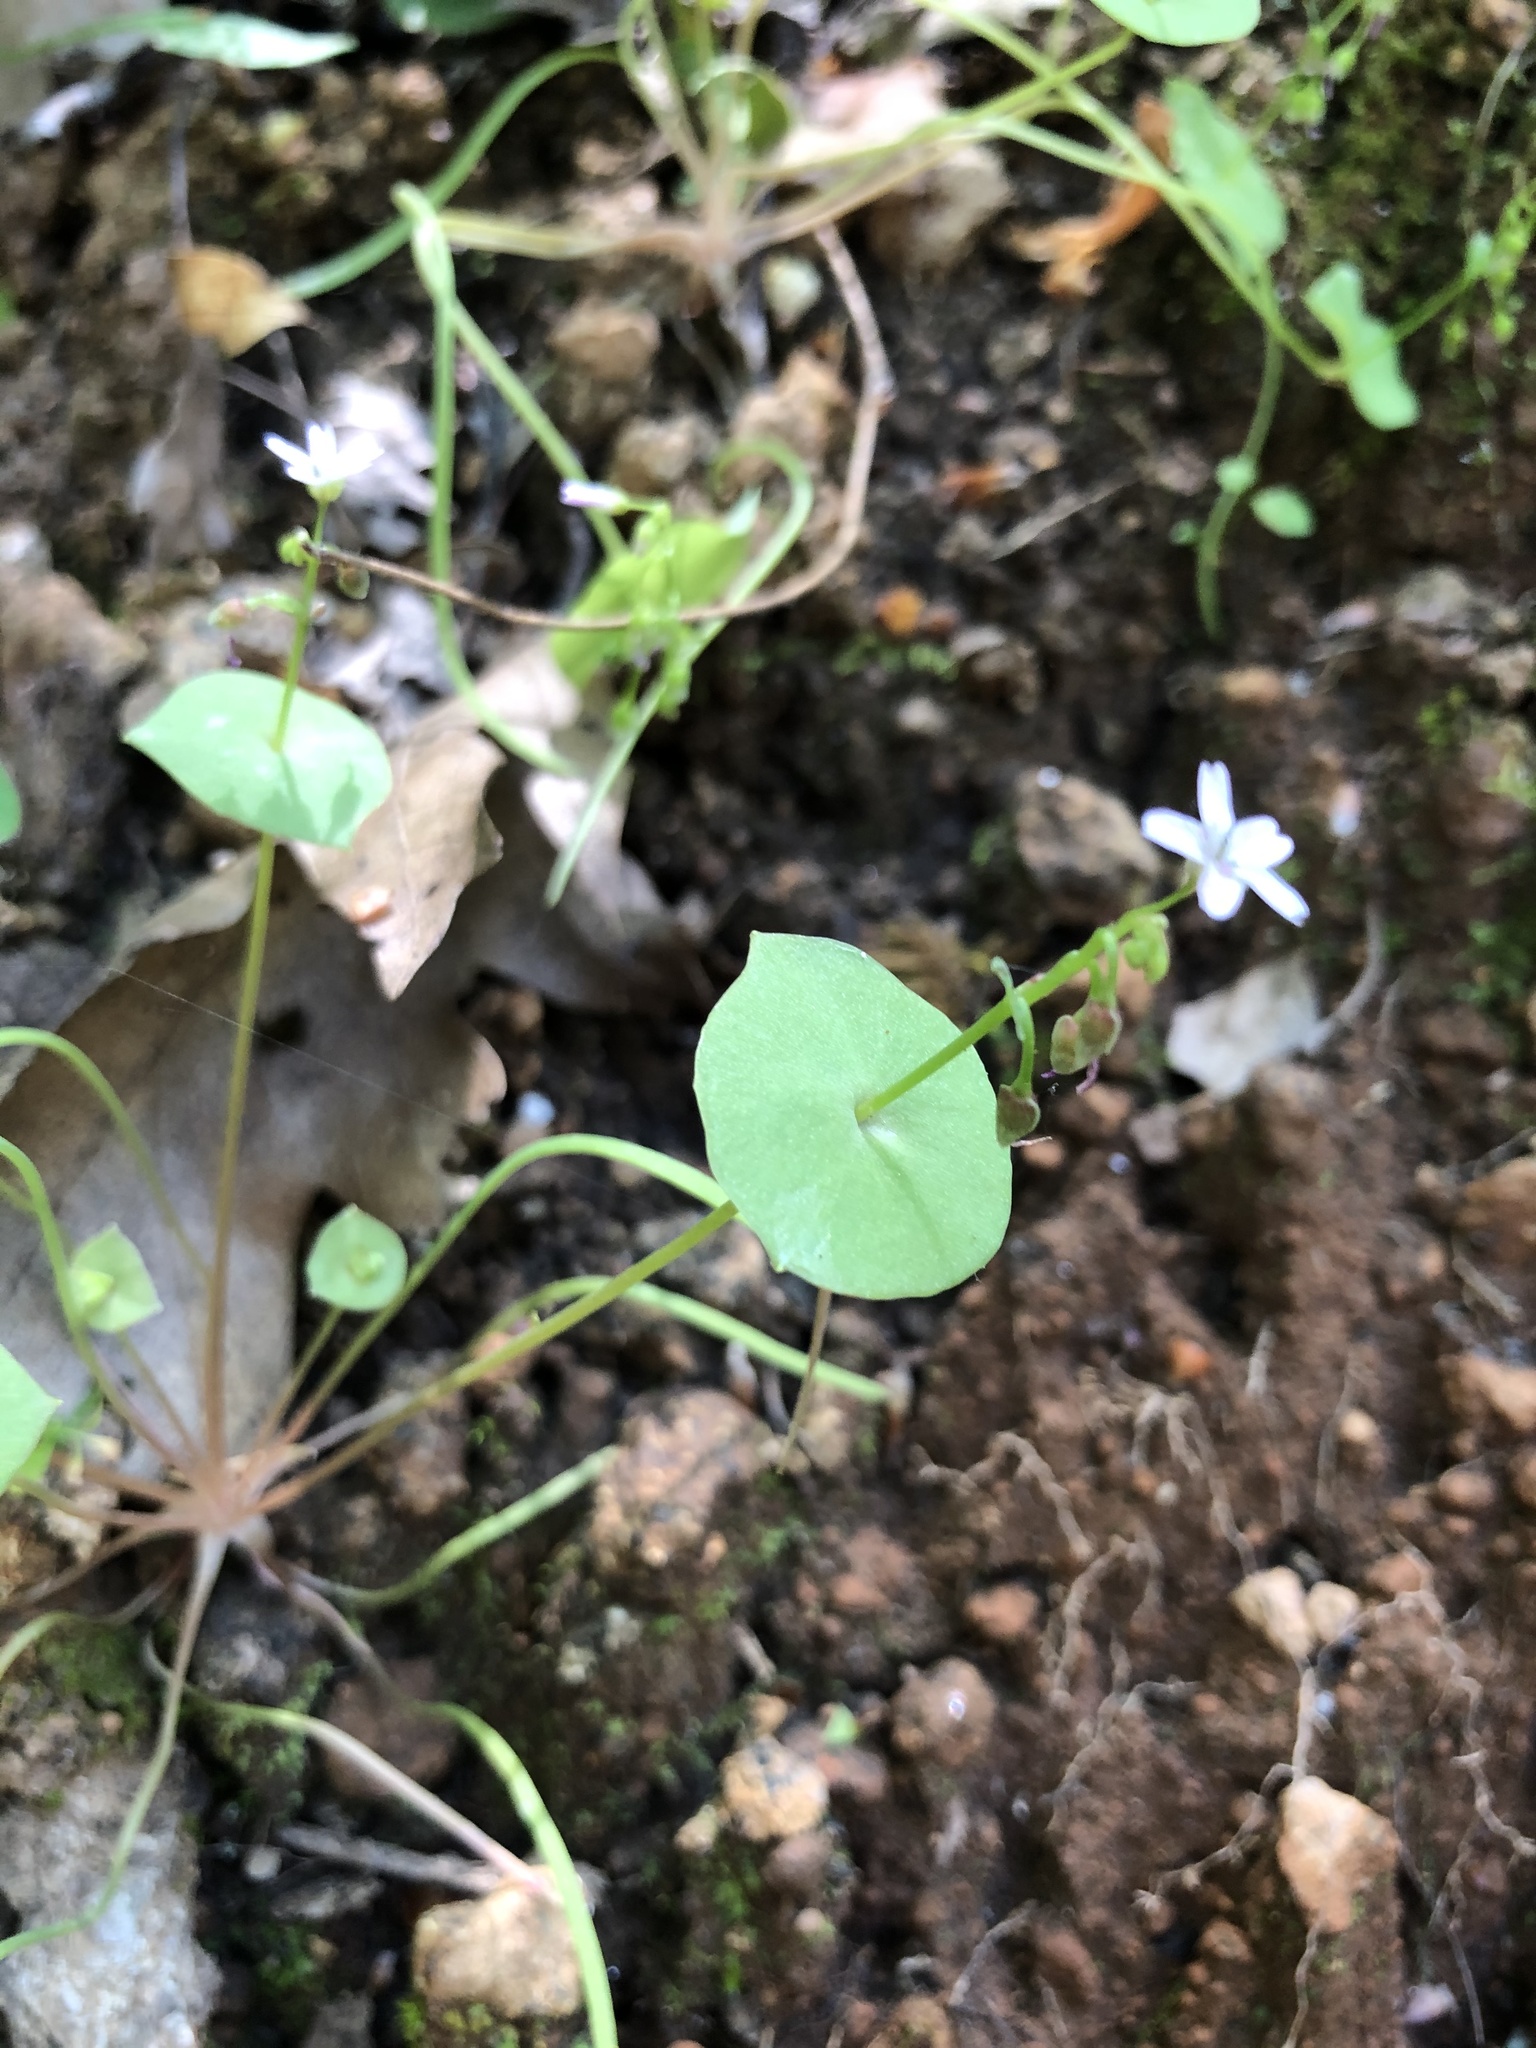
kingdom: Plantae
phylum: Tracheophyta
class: Magnoliopsida
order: Caryophyllales
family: Montiaceae
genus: Claytonia
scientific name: Claytonia parviflora
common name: Indian-lettuce
